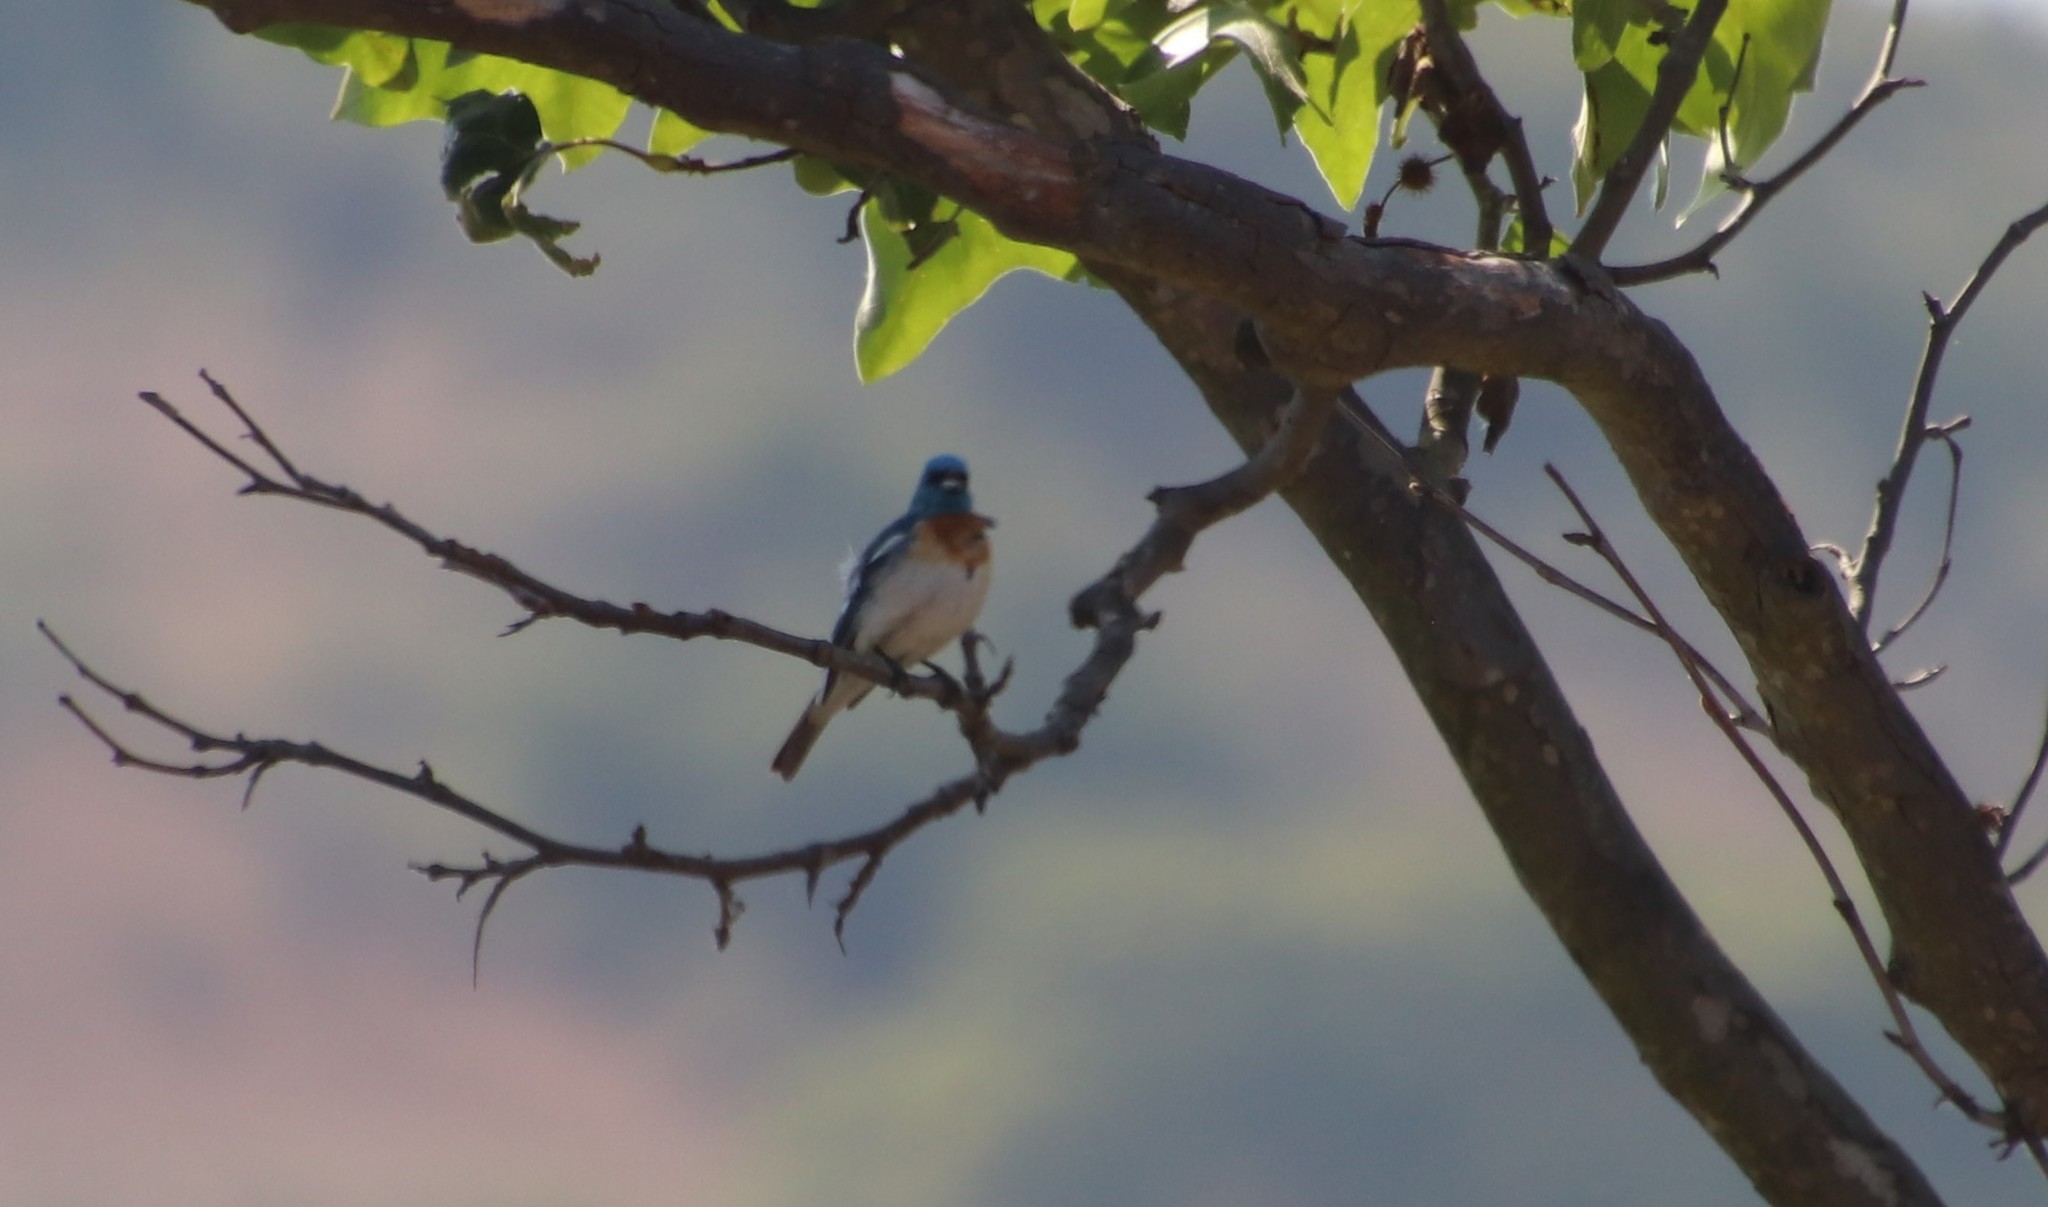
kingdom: Animalia
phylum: Chordata
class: Aves
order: Passeriformes
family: Cardinalidae
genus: Passerina
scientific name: Passerina amoena
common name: Lazuli bunting
